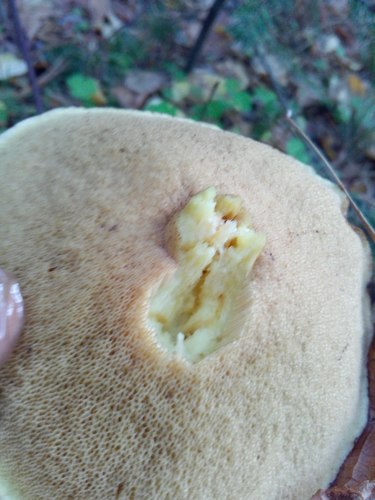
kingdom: Fungi
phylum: Basidiomycota
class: Agaricomycetes
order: Boletales
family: Suillaceae
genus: Suillus
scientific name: Suillus granulatus
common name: Weeping bolete
